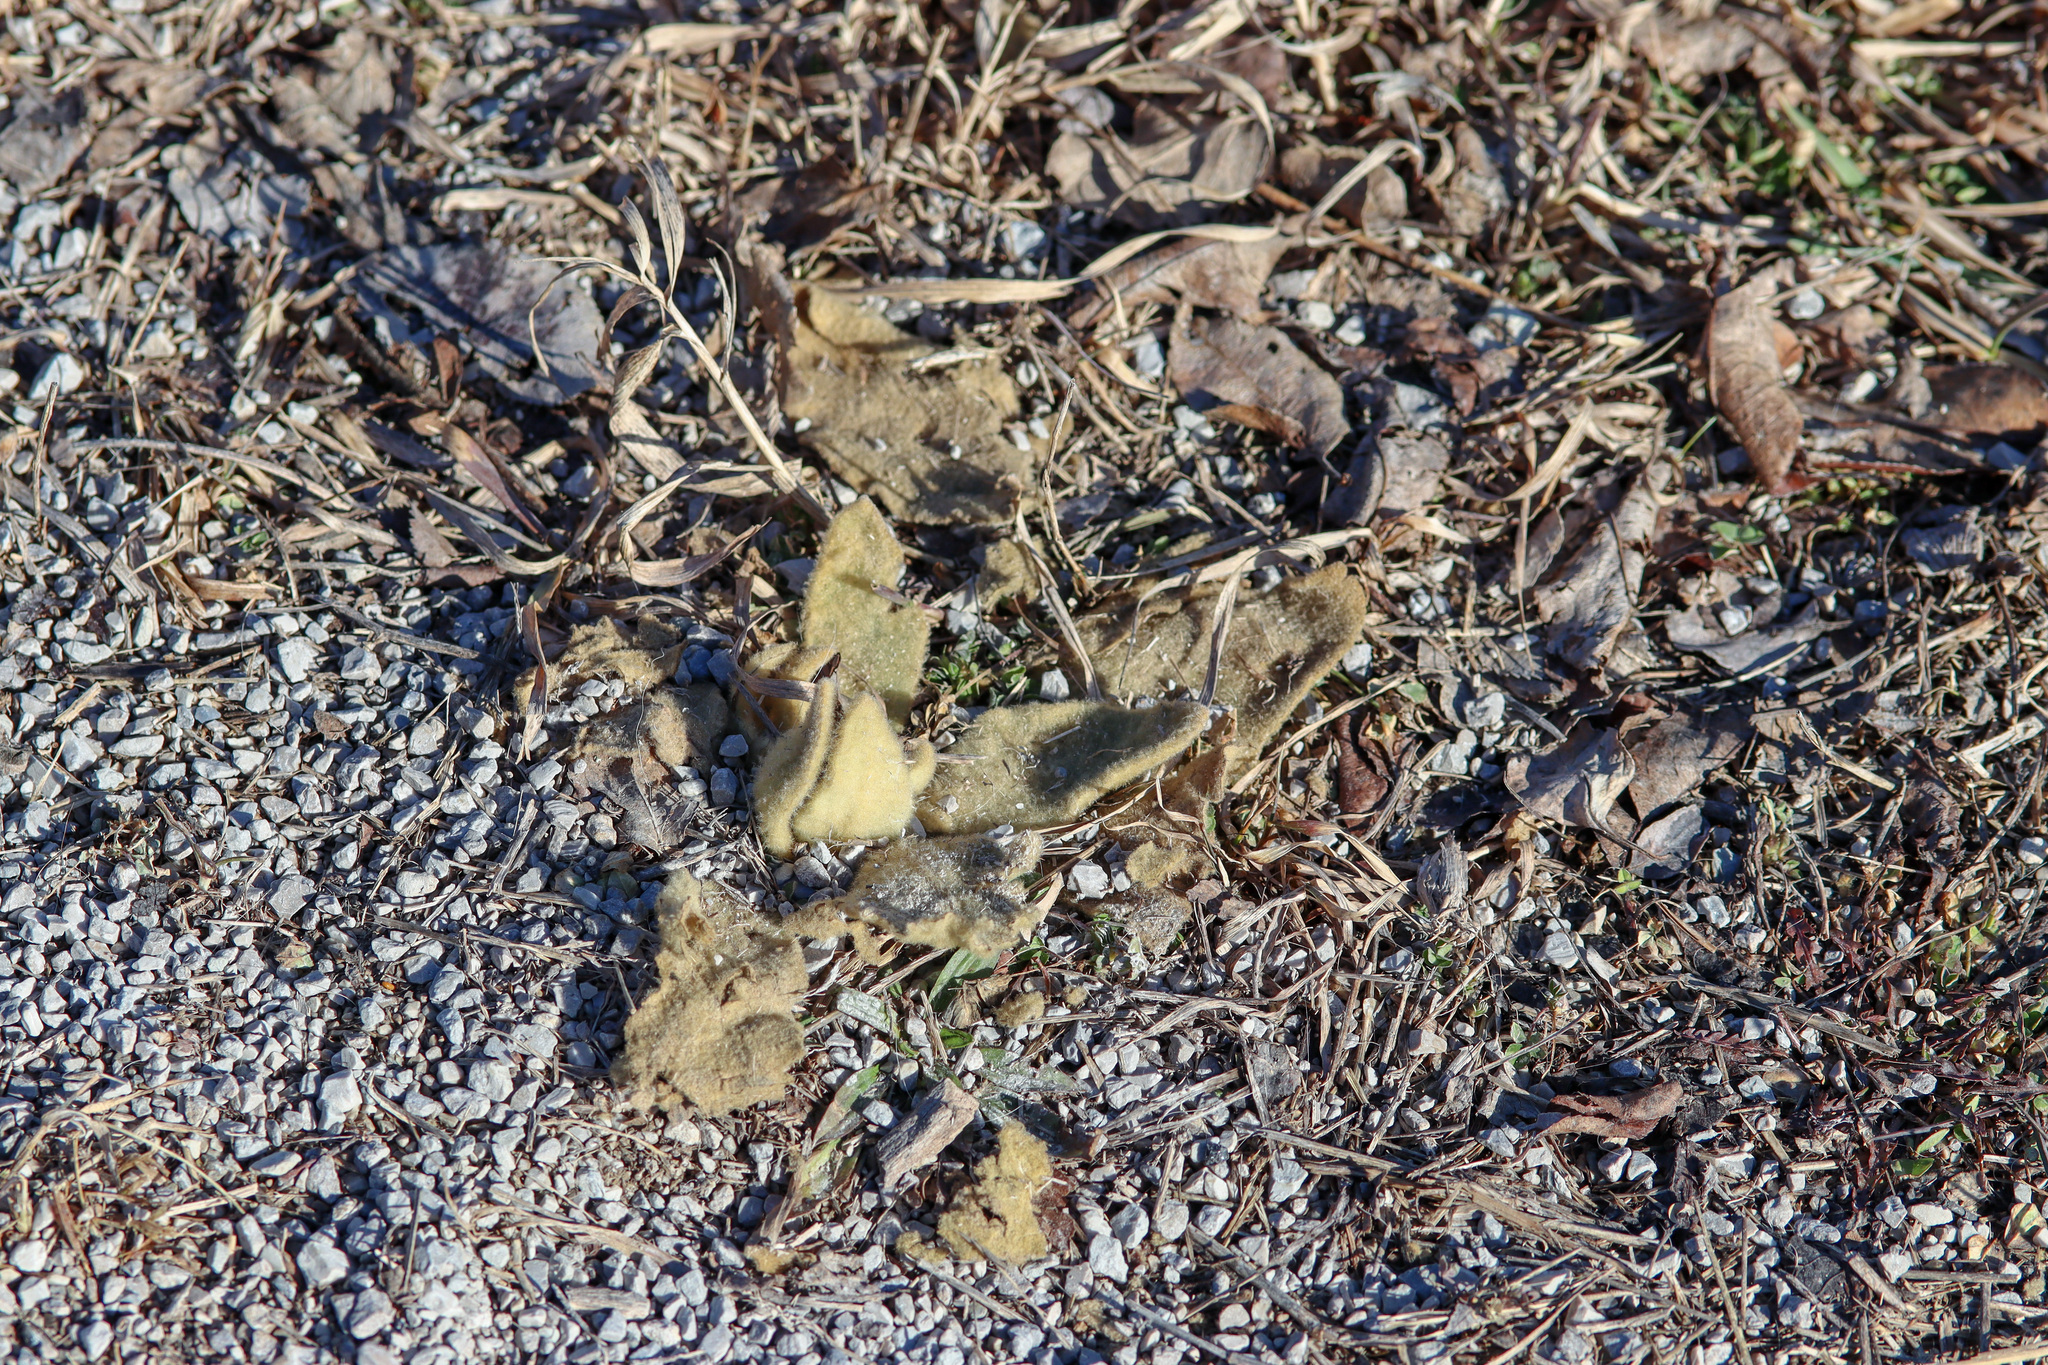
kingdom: Plantae
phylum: Tracheophyta
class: Magnoliopsida
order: Lamiales
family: Scrophulariaceae
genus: Verbascum
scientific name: Verbascum thapsus
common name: Common mullein
